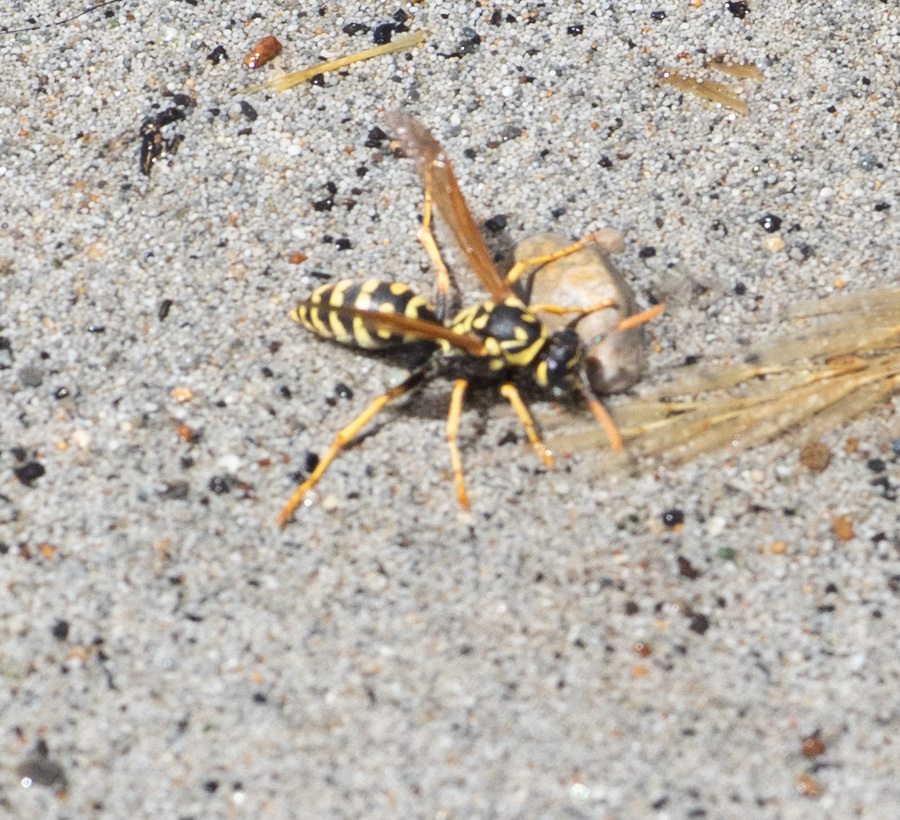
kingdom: Animalia
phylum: Arthropoda
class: Insecta
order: Hymenoptera
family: Eumenidae
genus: Polistes
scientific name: Polistes dominula
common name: Paper wasp
